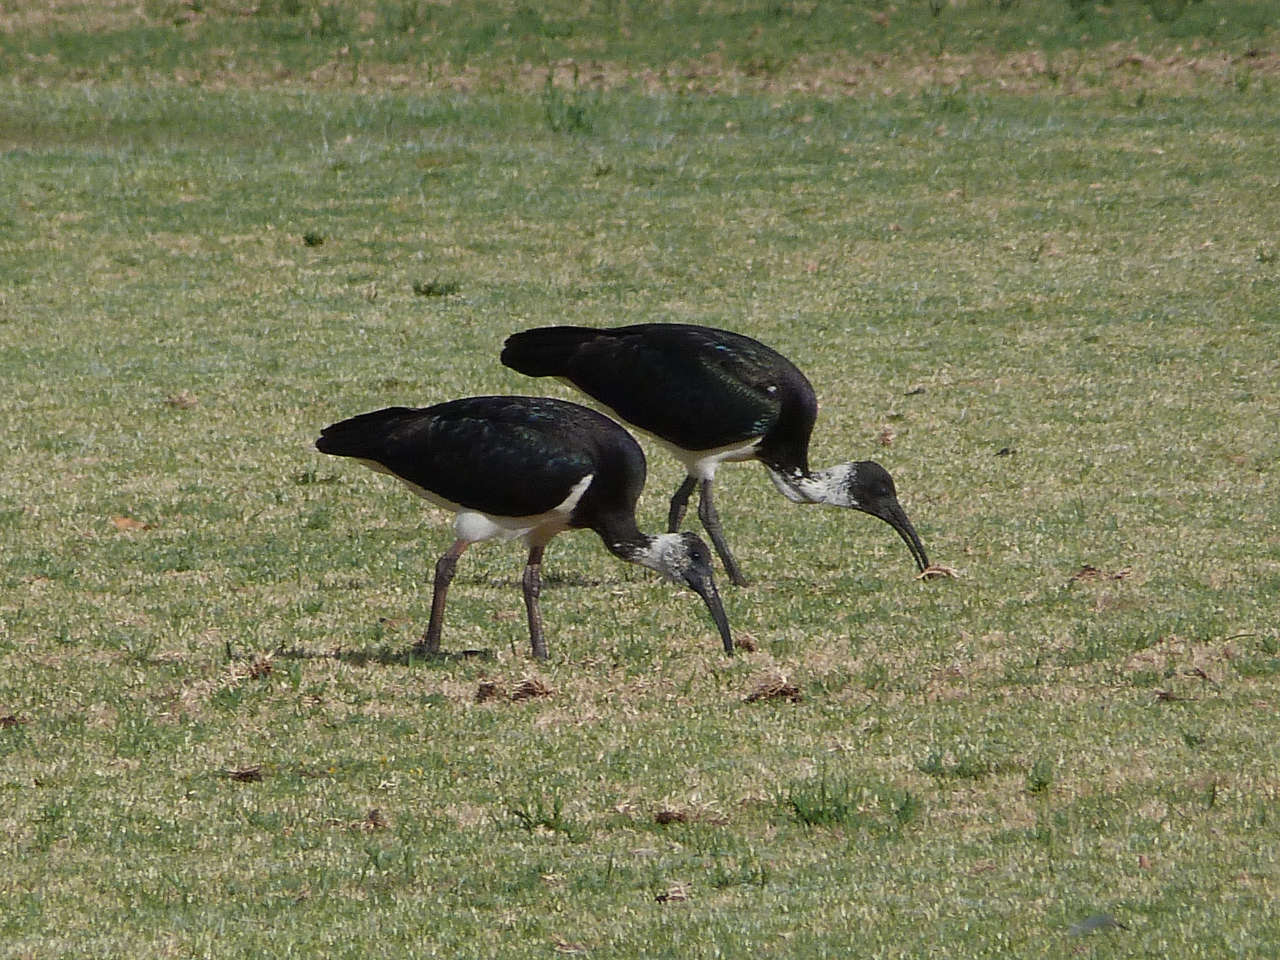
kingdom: Animalia
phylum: Chordata
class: Aves
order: Pelecaniformes
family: Threskiornithidae
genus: Threskiornis
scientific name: Threskiornis spinicollis
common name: Straw-necked ibis
